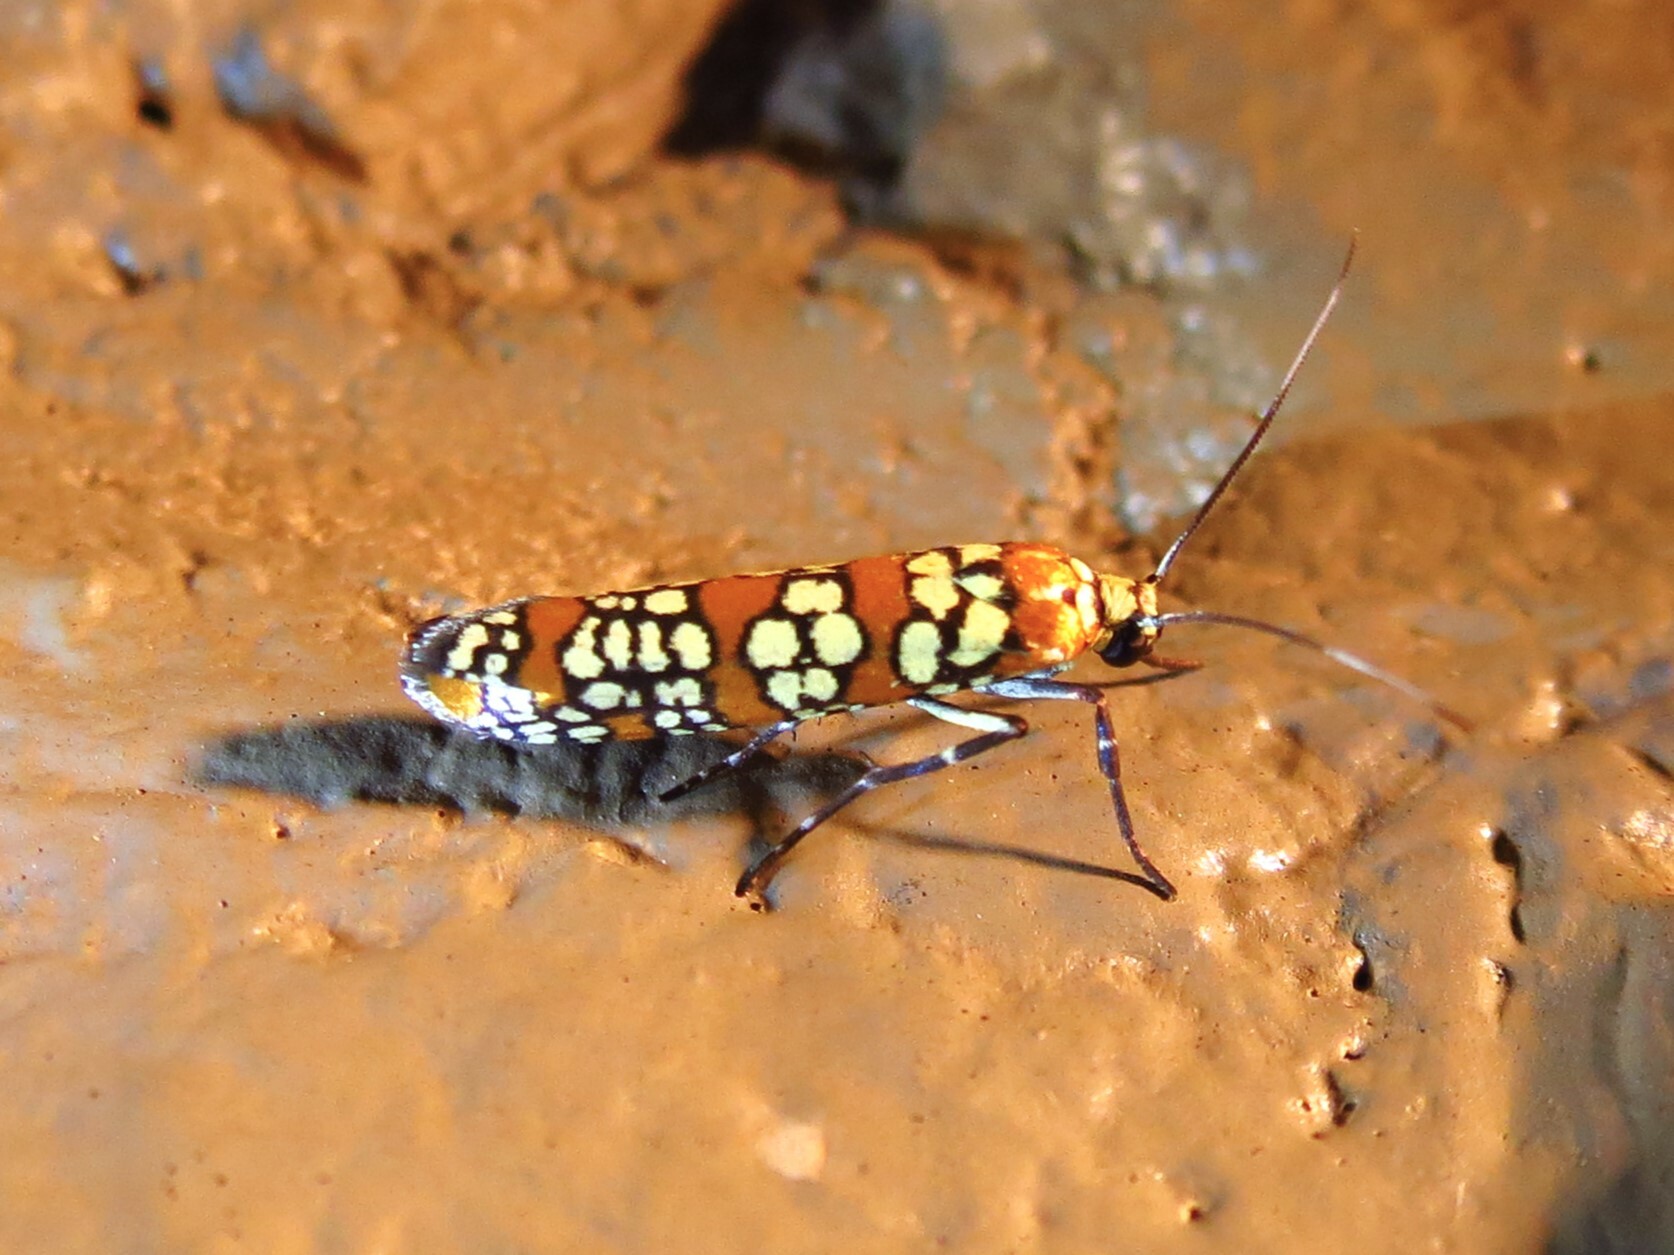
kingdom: Animalia
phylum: Arthropoda
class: Insecta
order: Lepidoptera
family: Attevidae
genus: Atteva
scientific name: Atteva punctella
